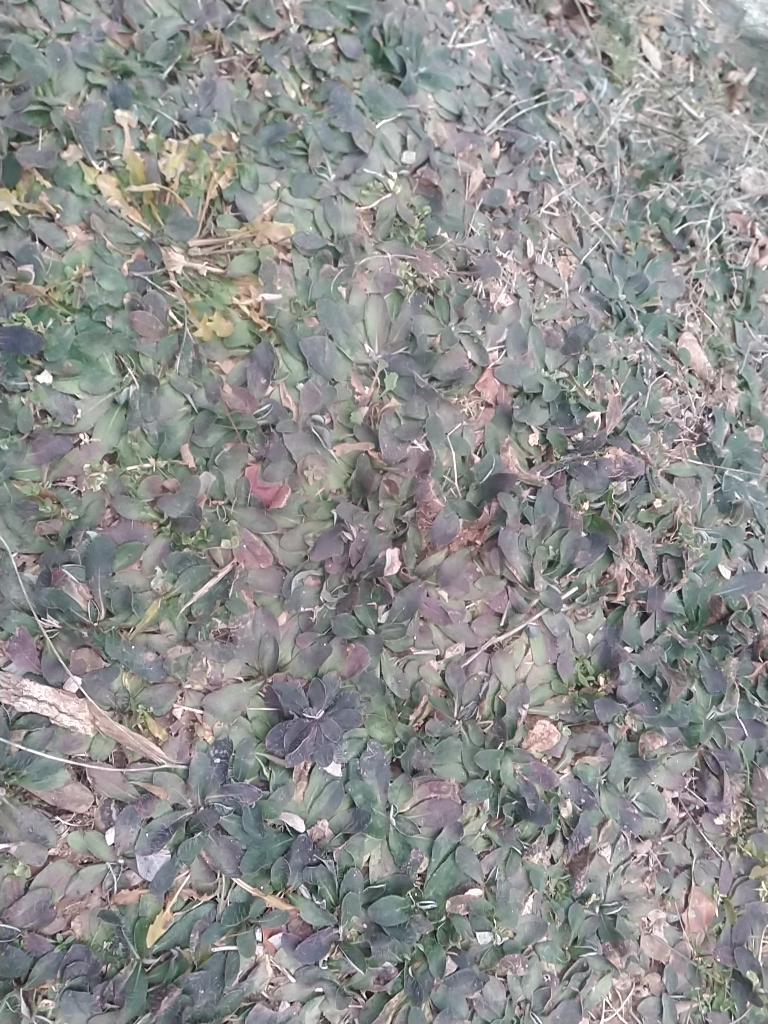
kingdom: Plantae
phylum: Tracheophyta
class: Magnoliopsida
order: Asterales
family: Asteraceae
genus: Pilosella
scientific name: Pilosella officinarum
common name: Mouse-ear hawkweed
